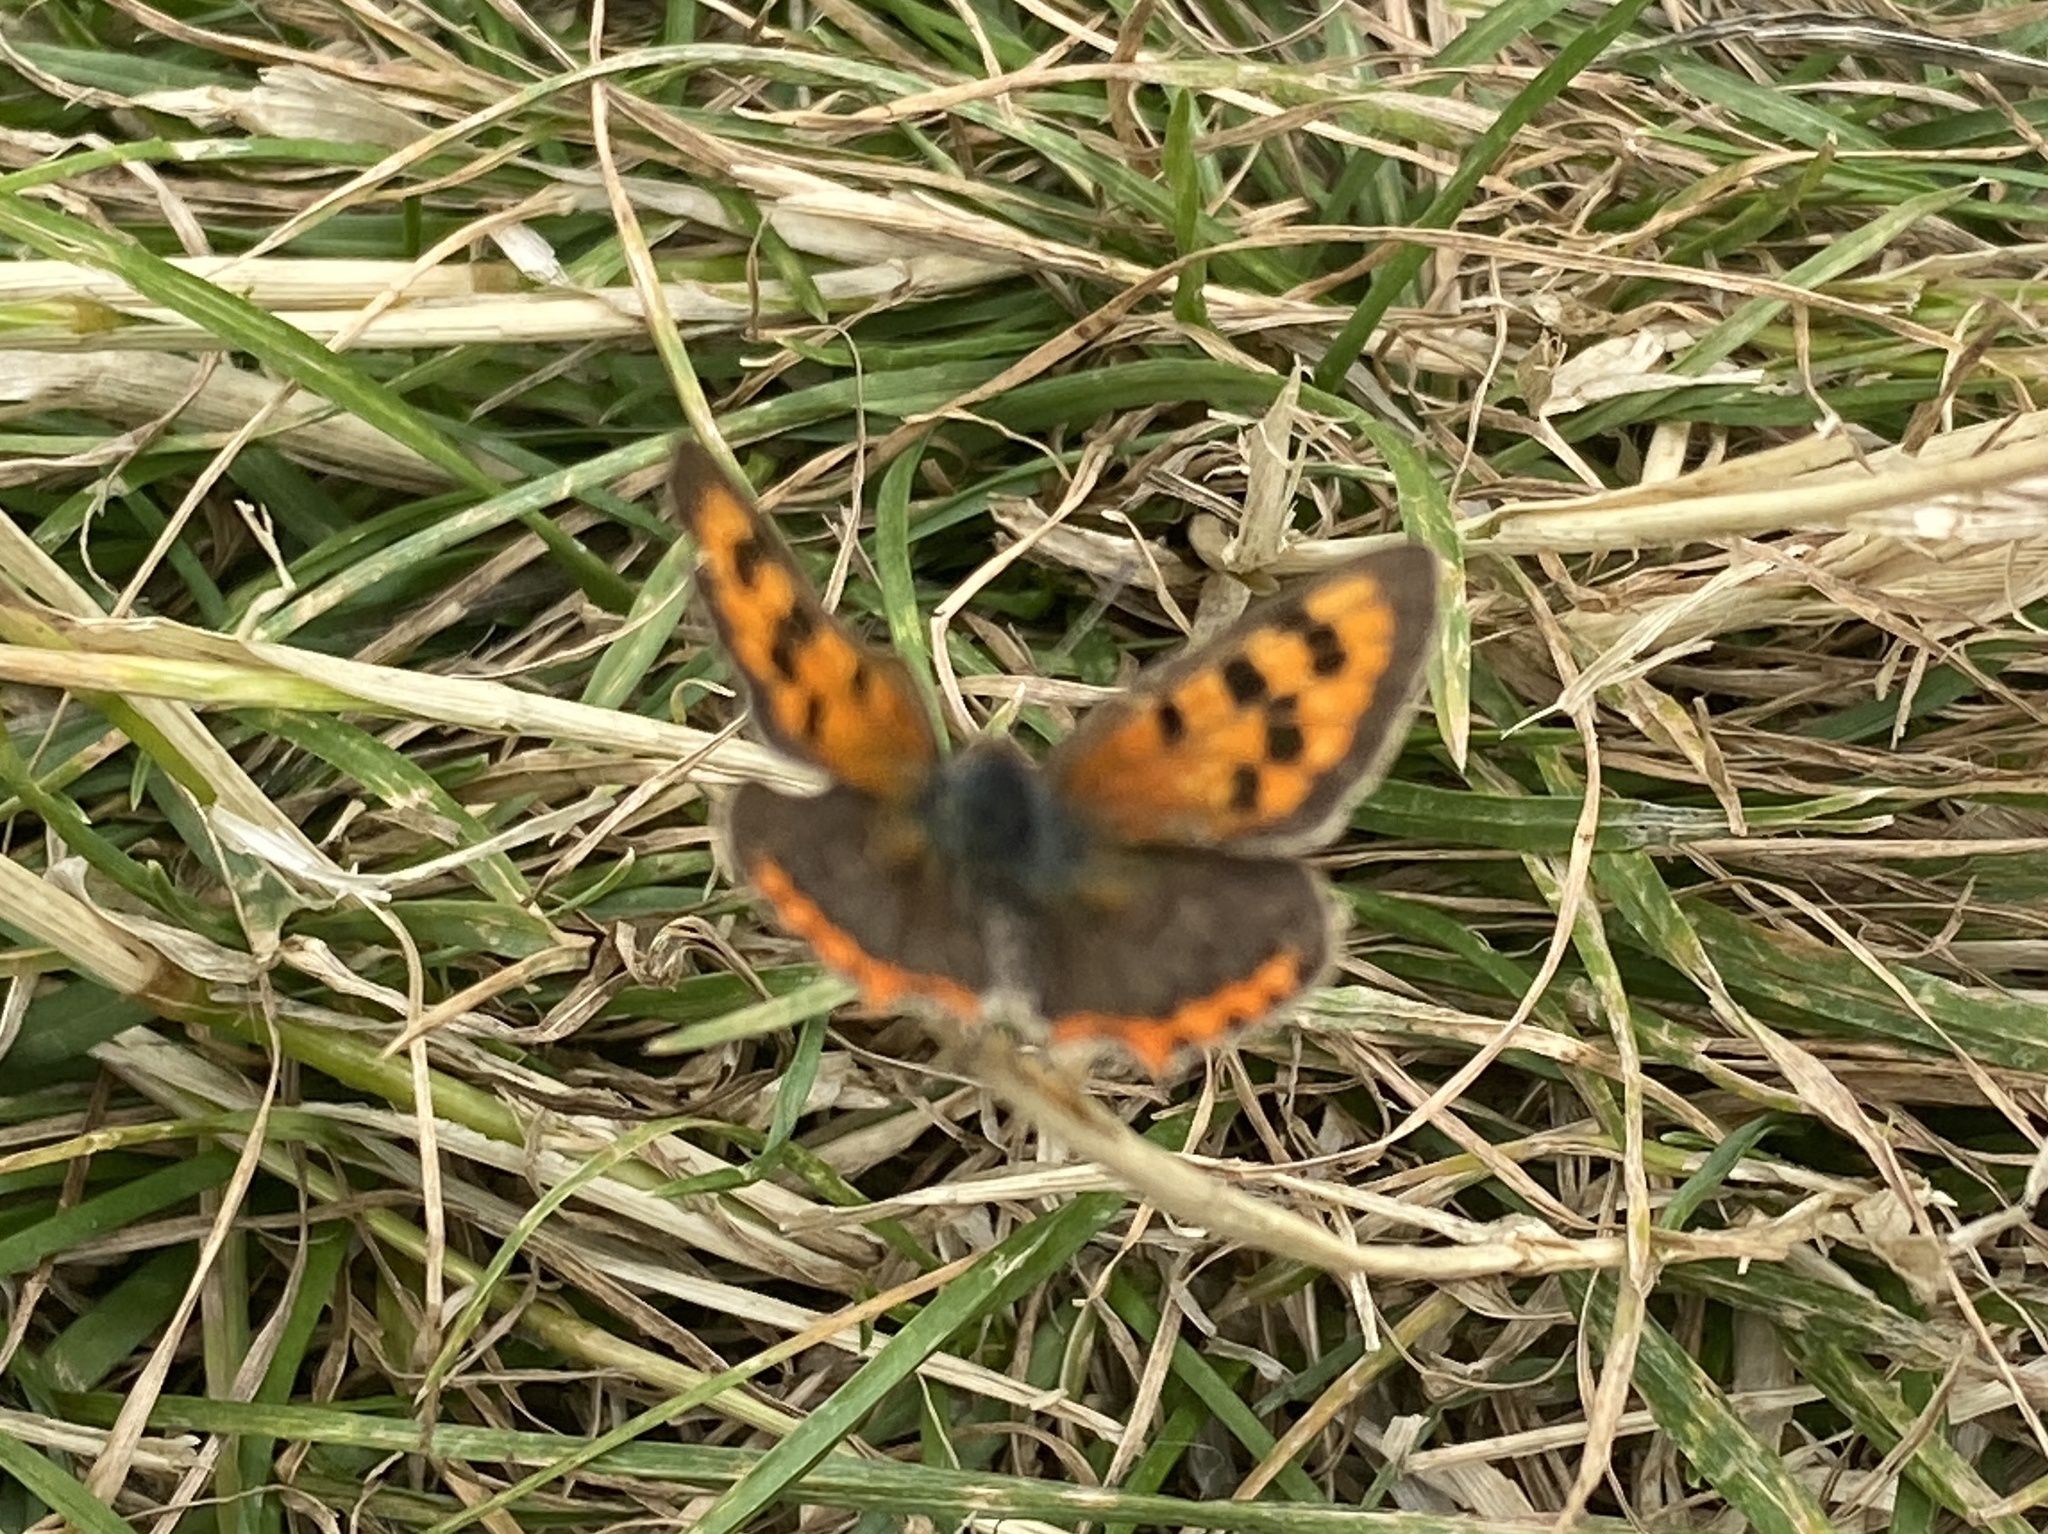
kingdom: Animalia
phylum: Arthropoda
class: Insecta
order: Lepidoptera
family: Lycaenidae
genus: Lycaena
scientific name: Lycaena phlaeas
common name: Small copper
